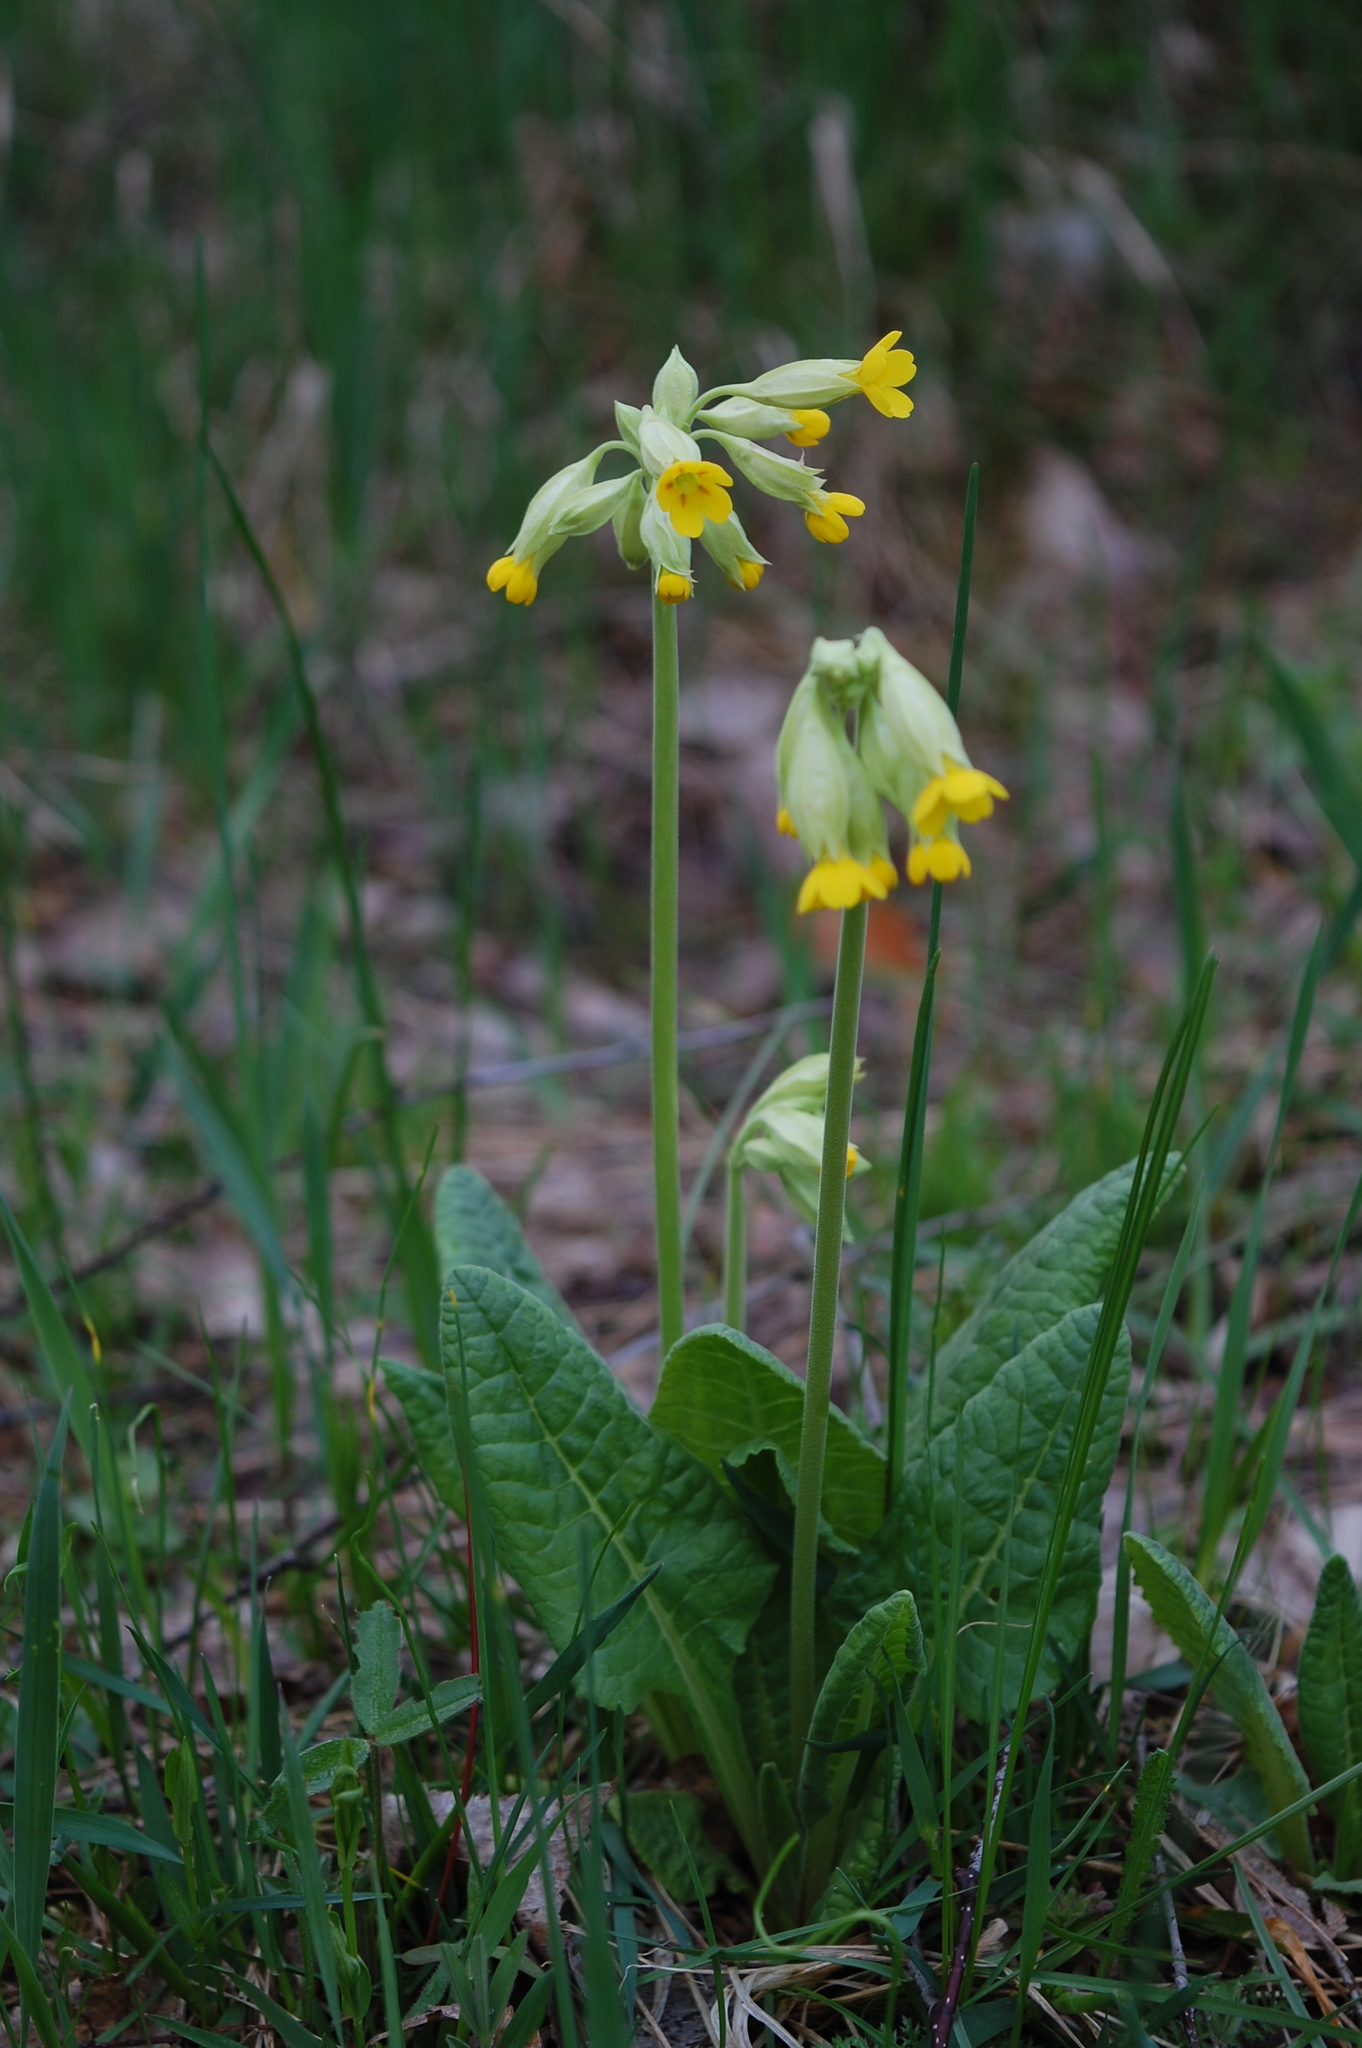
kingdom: Plantae
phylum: Tracheophyta
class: Magnoliopsida
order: Ericales
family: Primulaceae
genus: Primula
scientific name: Primula veris
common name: Cowslip
